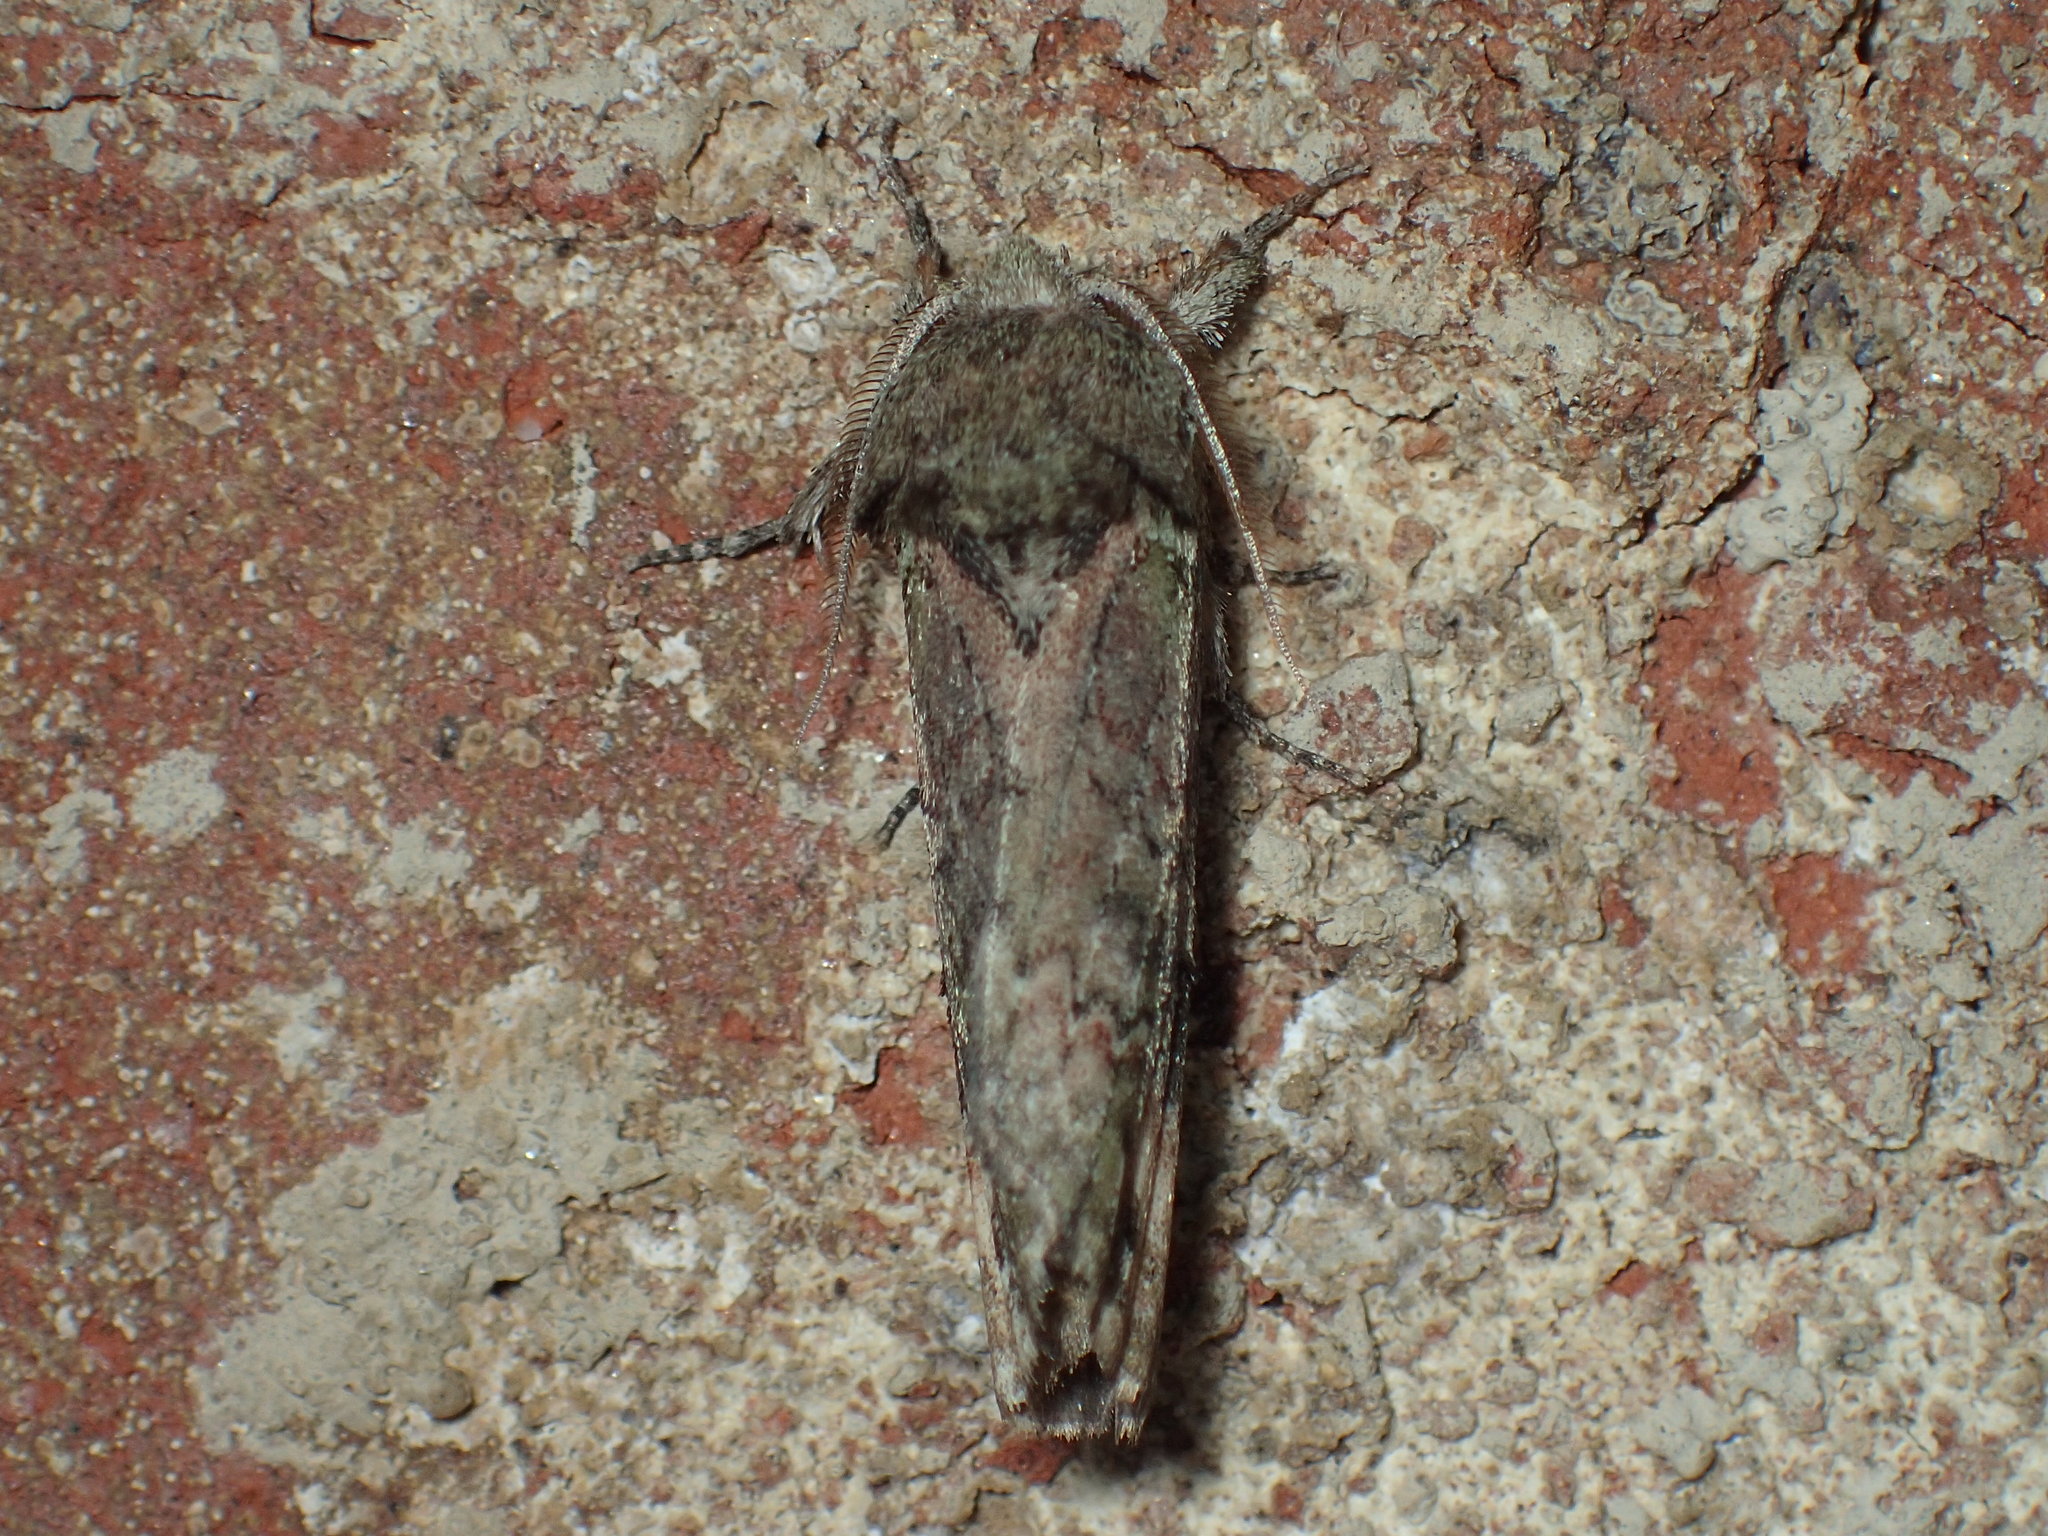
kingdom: Animalia
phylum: Arthropoda
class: Insecta
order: Lepidoptera
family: Notodontidae
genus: Schizura
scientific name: Schizura
